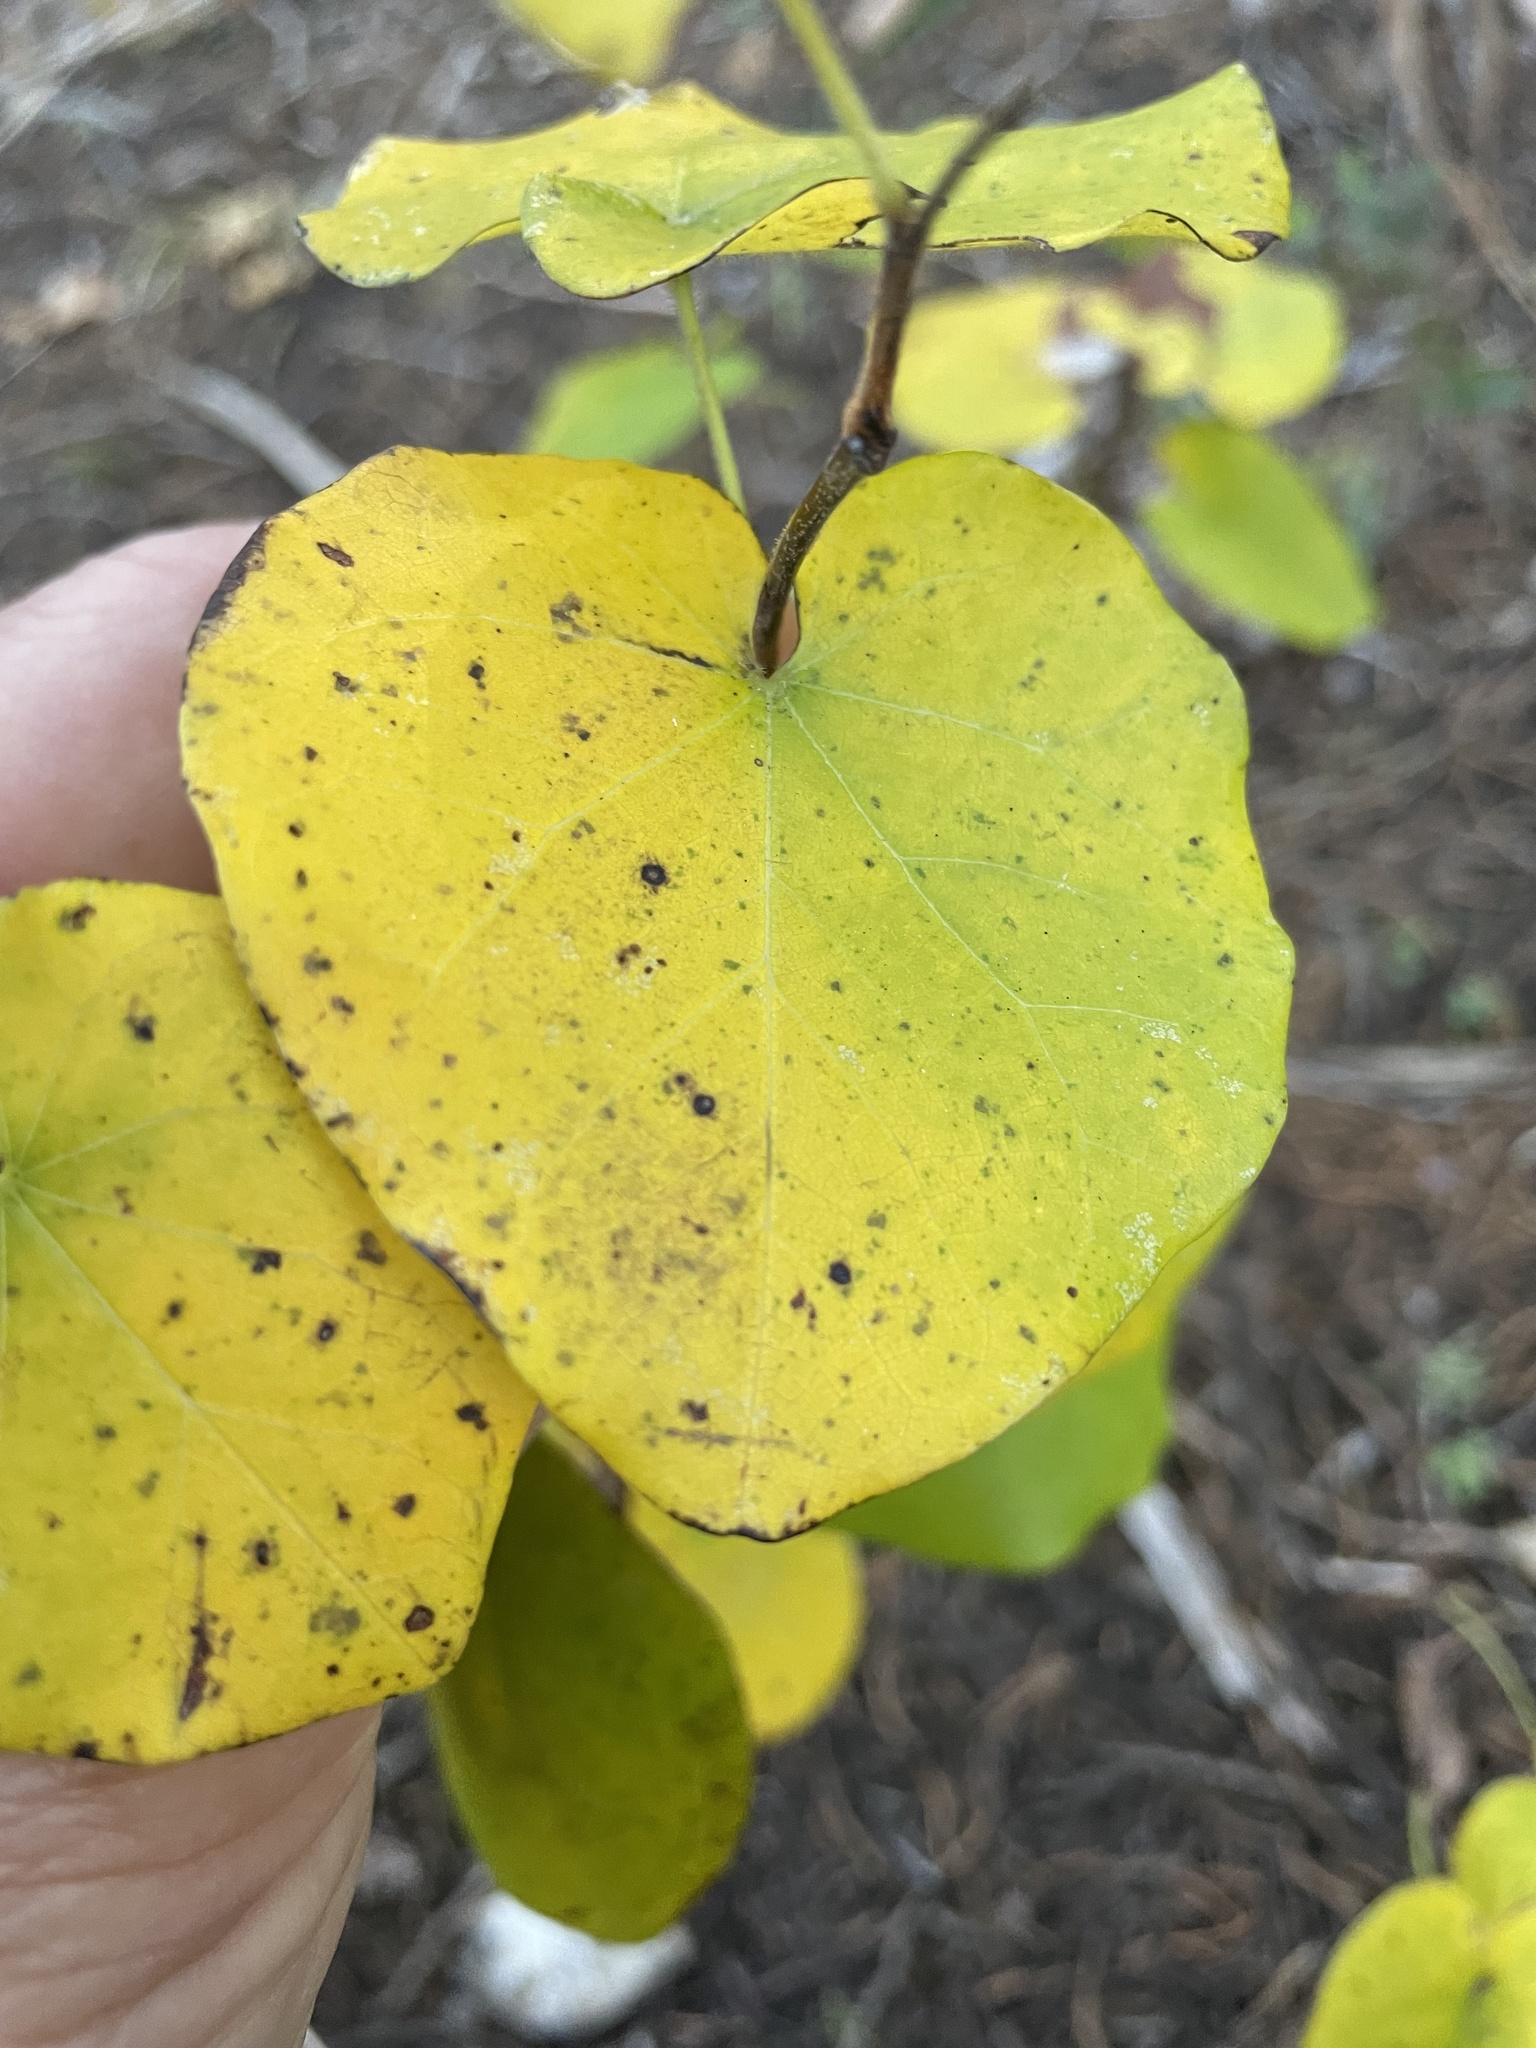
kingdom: Plantae
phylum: Tracheophyta
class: Magnoliopsida
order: Fabales
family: Fabaceae
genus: Cercis
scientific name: Cercis canadensis
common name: Eastern redbud
